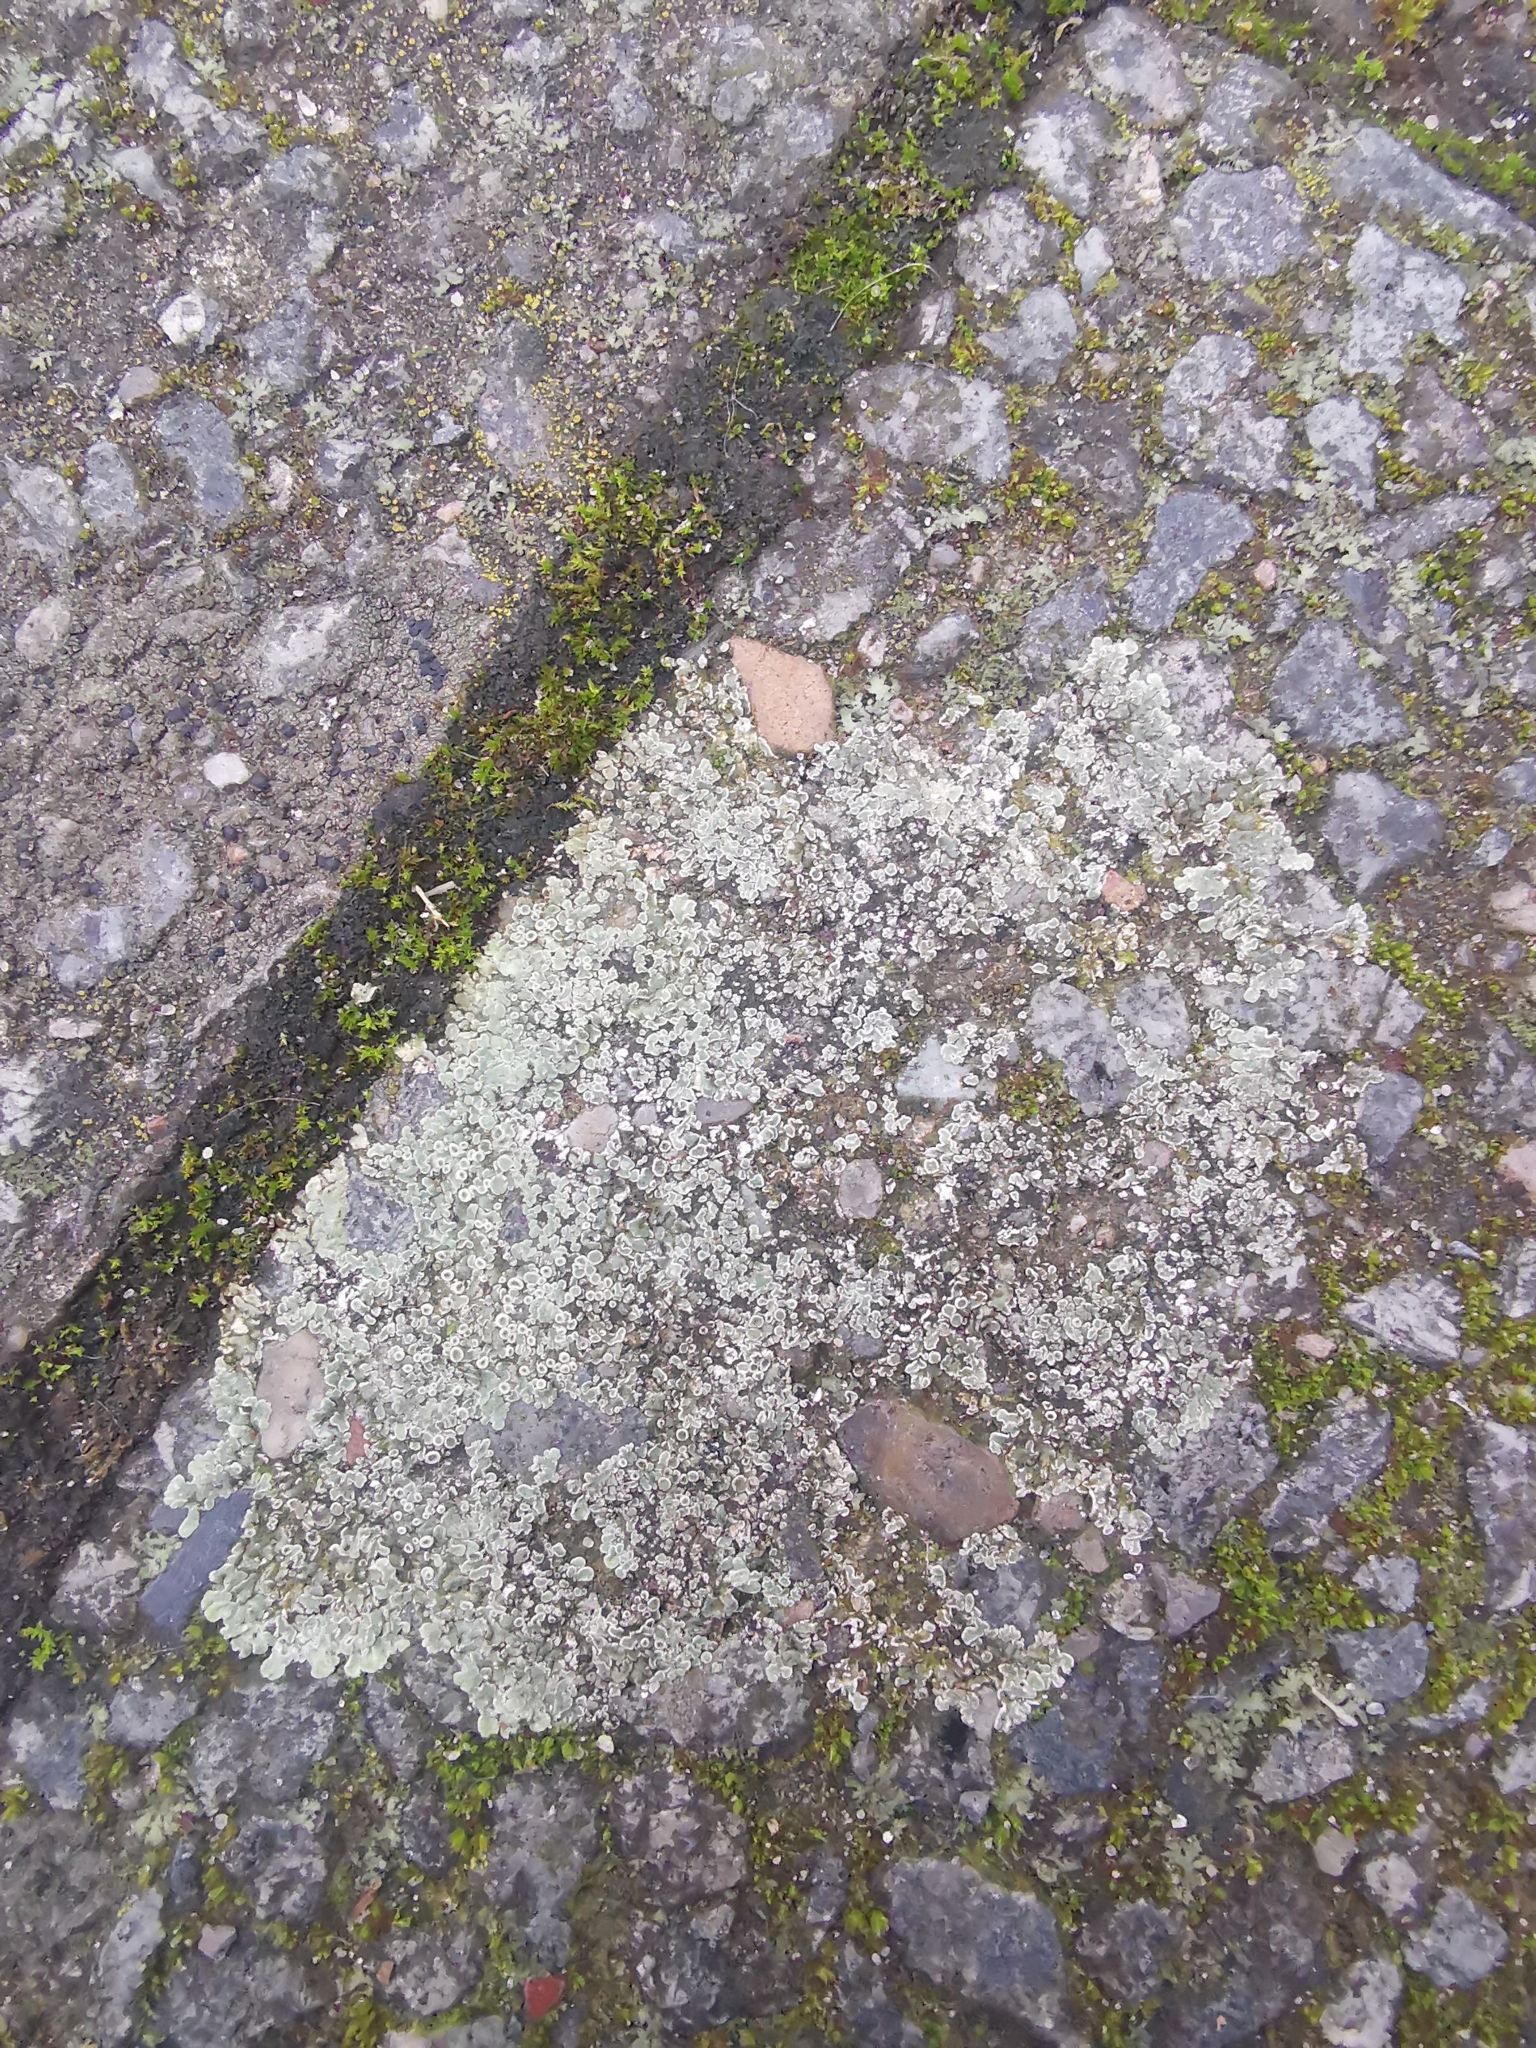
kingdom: Fungi
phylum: Ascomycota
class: Lecanoromycetes
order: Lecanorales
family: Lecanoraceae
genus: Protoparmeliopsis
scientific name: Protoparmeliopsis muralis
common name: Stonewall rim lichen
